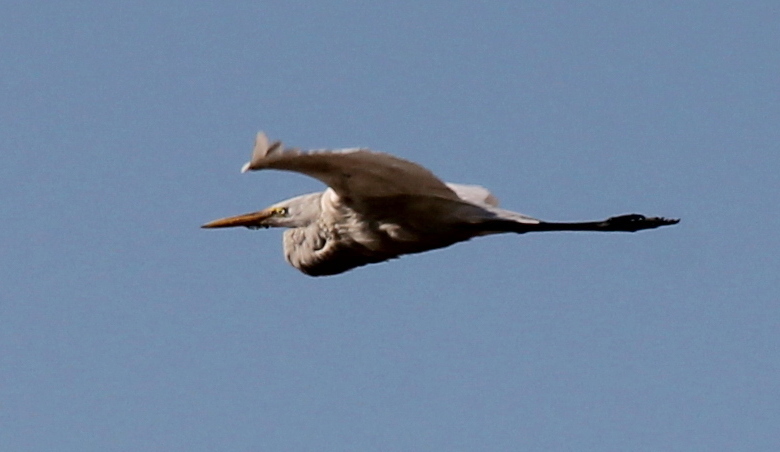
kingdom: Animalia
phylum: Chordata
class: Aves
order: Pelecaniformes
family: Ardeidae
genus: Ardea
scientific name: Ardea alba
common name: Great egret
